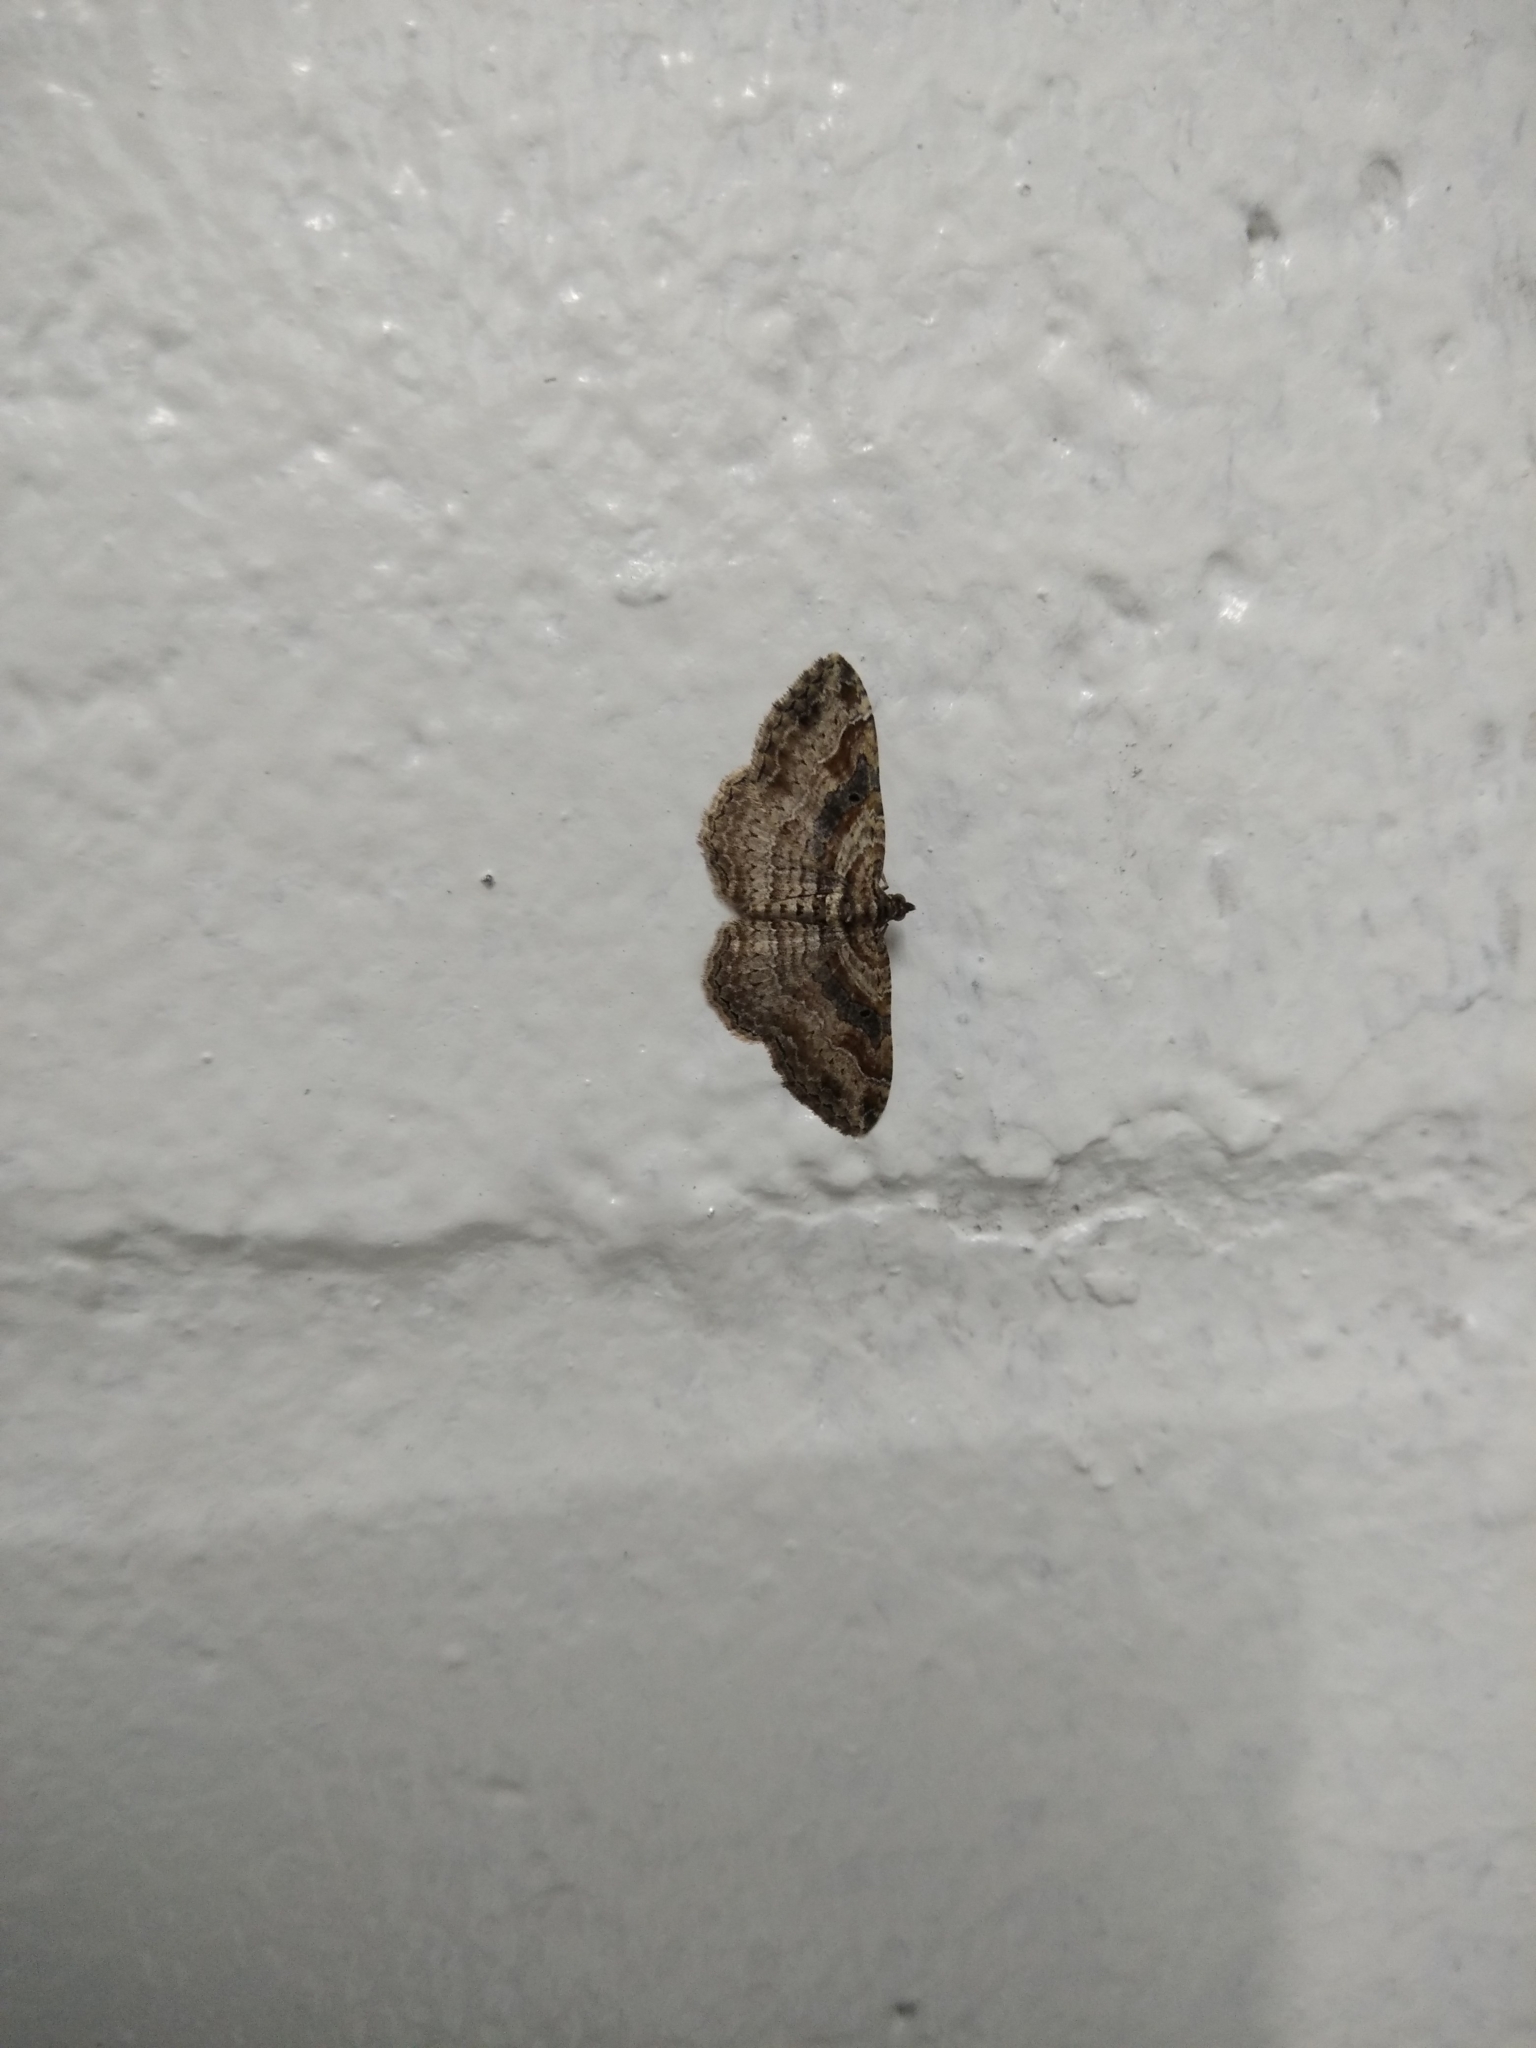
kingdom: Animalia
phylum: Arthropoda
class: Insecta
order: Lepidoptera
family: Geometridae
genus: Costaconvexa
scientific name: Costaconvexa centrostrigaria
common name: Bent-line carpet
